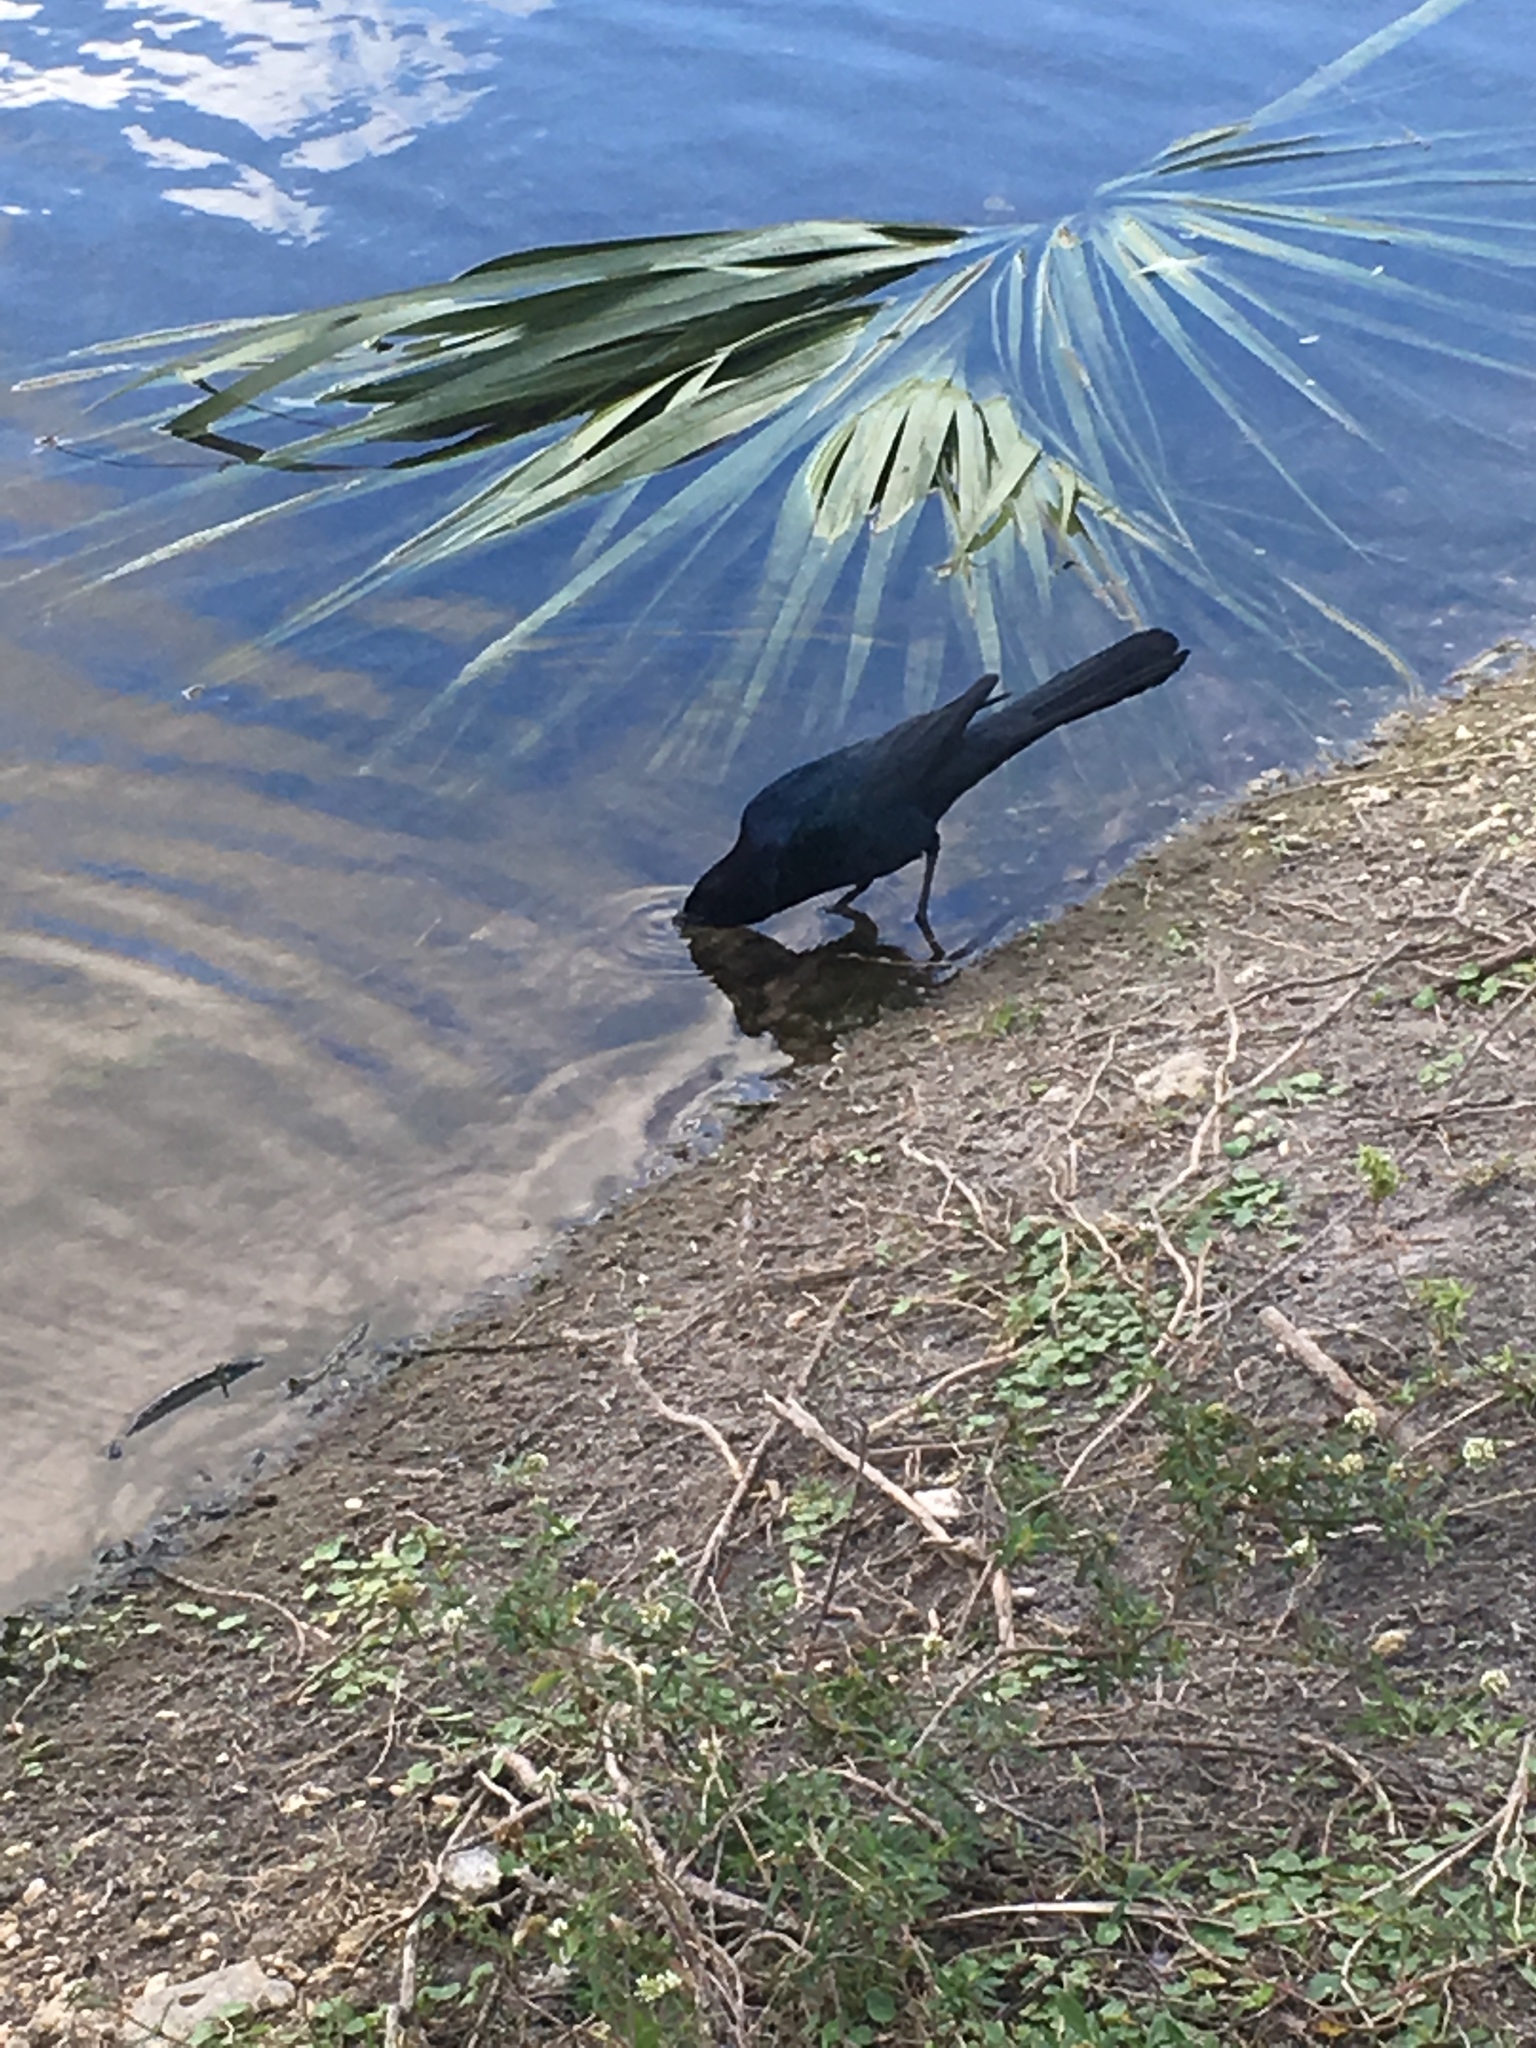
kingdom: Animalia
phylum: Chordata
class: Aves
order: Passeriformes
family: Icteridae
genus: Quiscalus
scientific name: Quiscalus major
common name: Boat-tailed grackle
